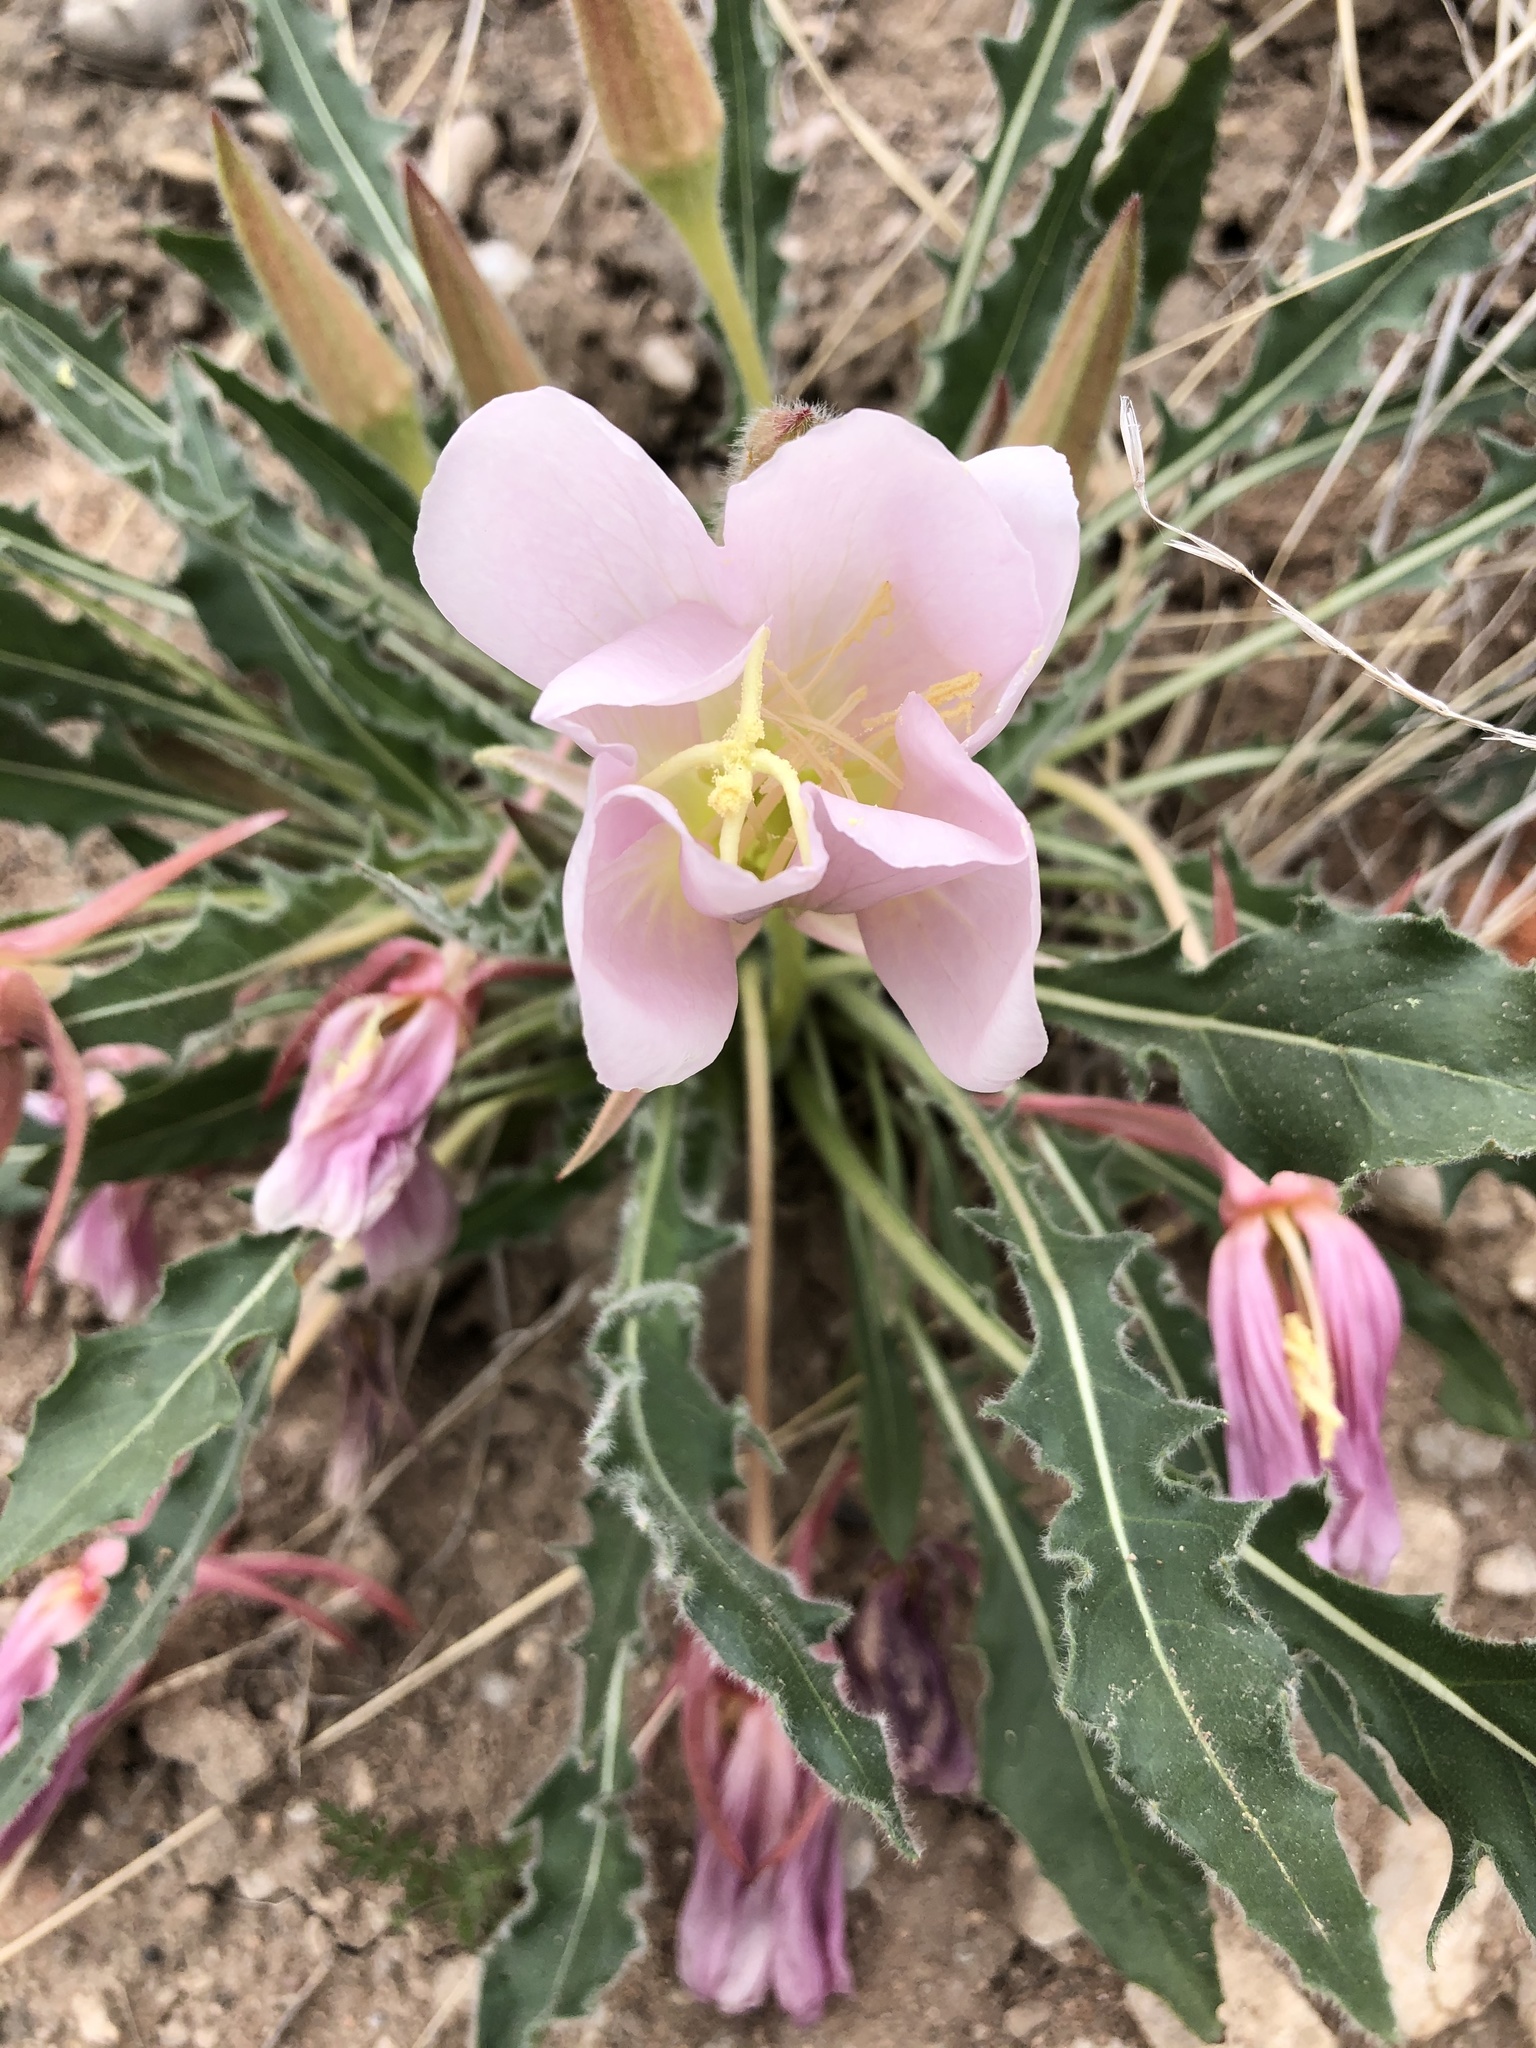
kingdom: Plantae
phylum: Tracheophyta
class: Magnoliopsida
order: Myrtales
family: Onagraceae
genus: Oenothera
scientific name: Oenothera cespitosa
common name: Tufted evening-primrose
